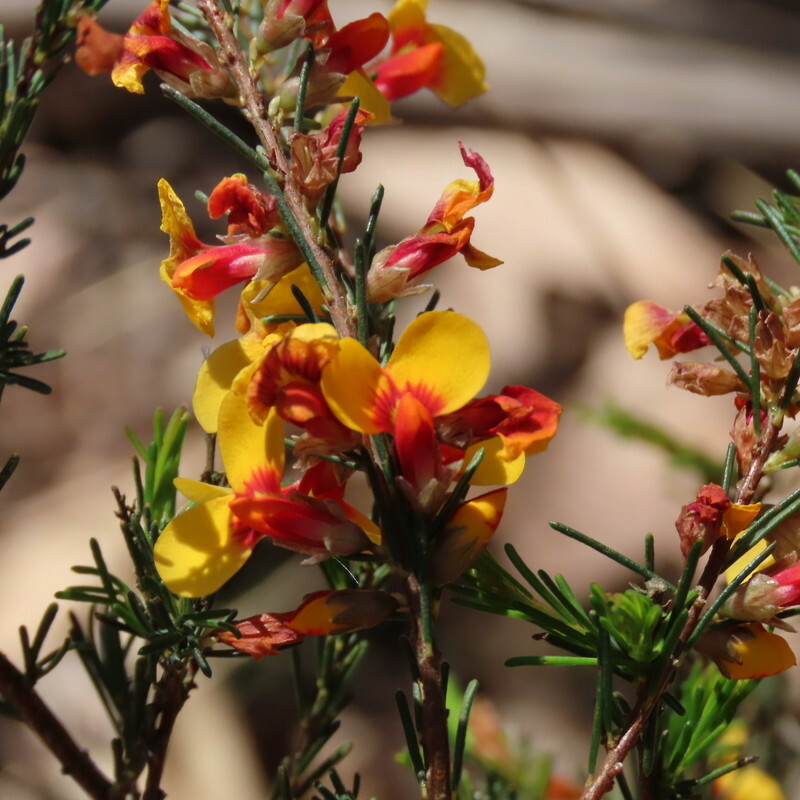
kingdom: Plantae
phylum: Tracheophyta
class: Magnoliopsida
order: Fabales
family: Fabaceae
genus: Dillwynia
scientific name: Dillwynia sericea
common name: Showy parrot-pea
